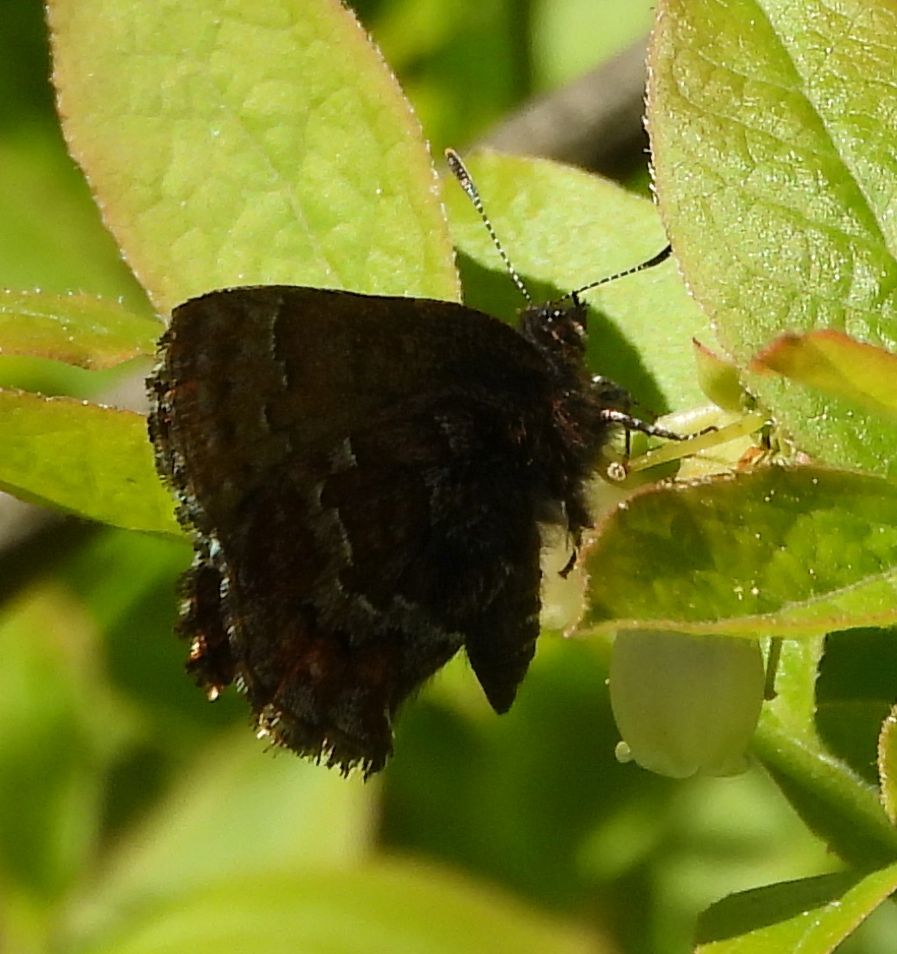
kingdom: Animalia
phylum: Arthropoda
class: Insecta
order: Lepidoptera
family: Lycaenidae
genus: Incisalia
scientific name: Incisalia niphon
